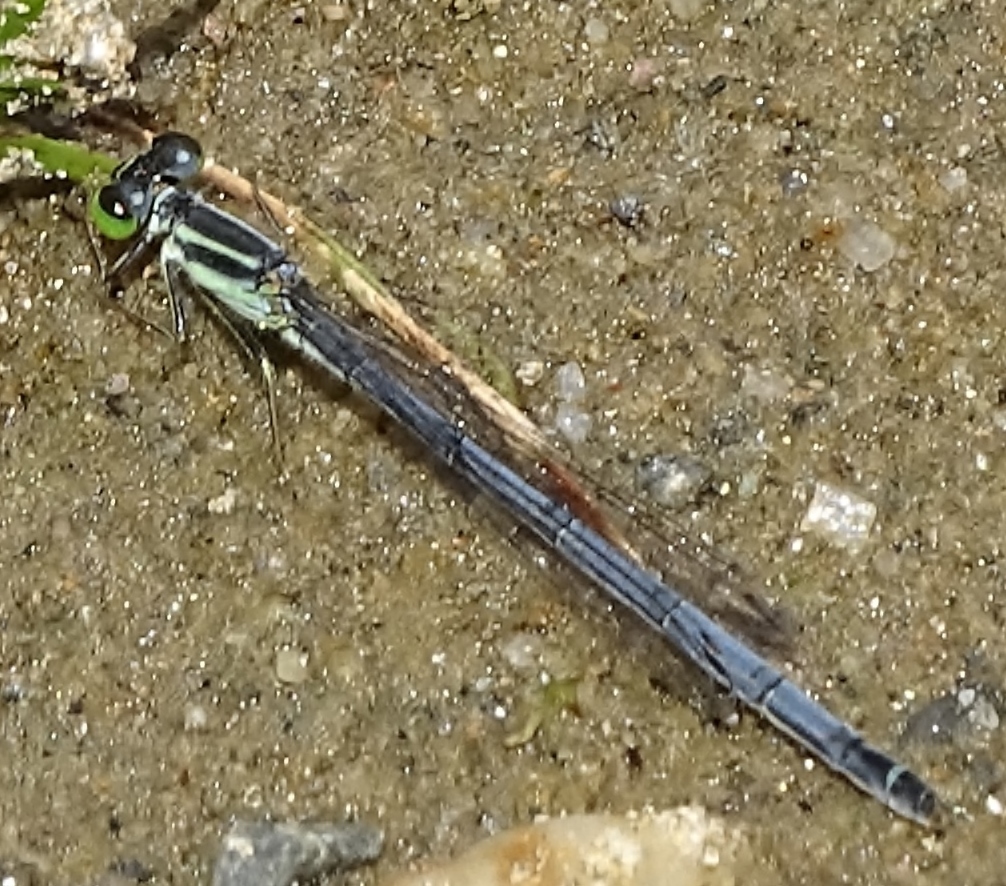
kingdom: Animalia
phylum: Arthropoda
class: Insecta
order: Odonata
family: Coenagrionidae
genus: Ischnura
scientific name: Ischnura verticalis
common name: Eastern forktail
